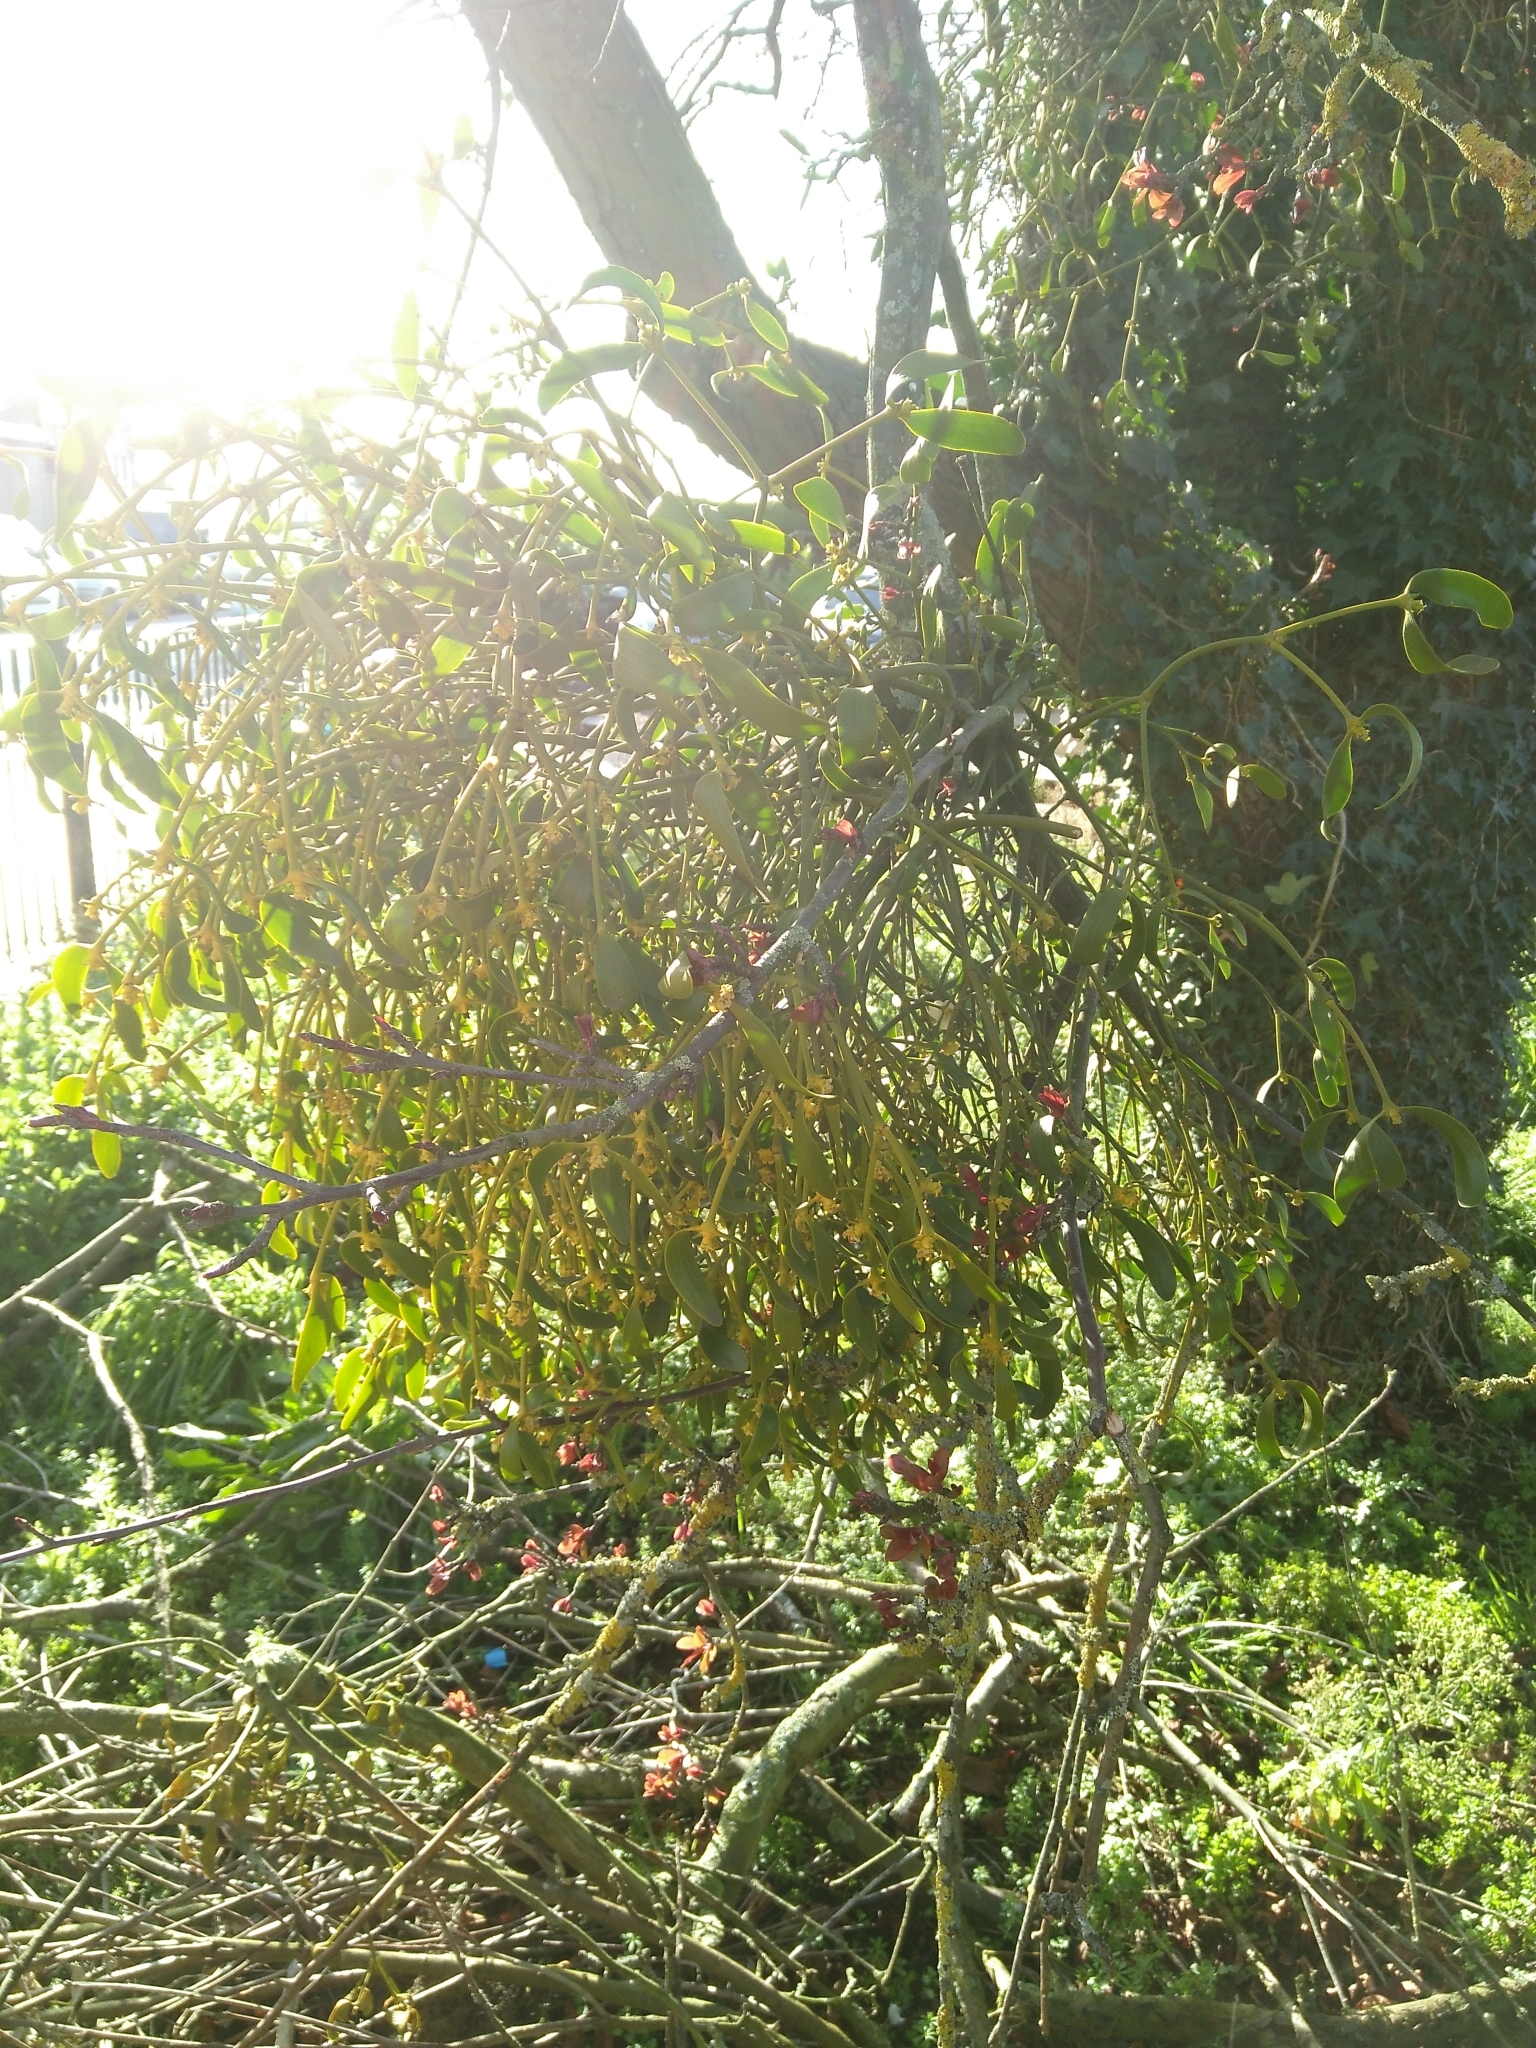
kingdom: Plantae
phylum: Tracheophyta
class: Magnoliopsida
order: Santalales
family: Viscaceae
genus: Viscum
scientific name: Viscum album
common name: Mistletoe
